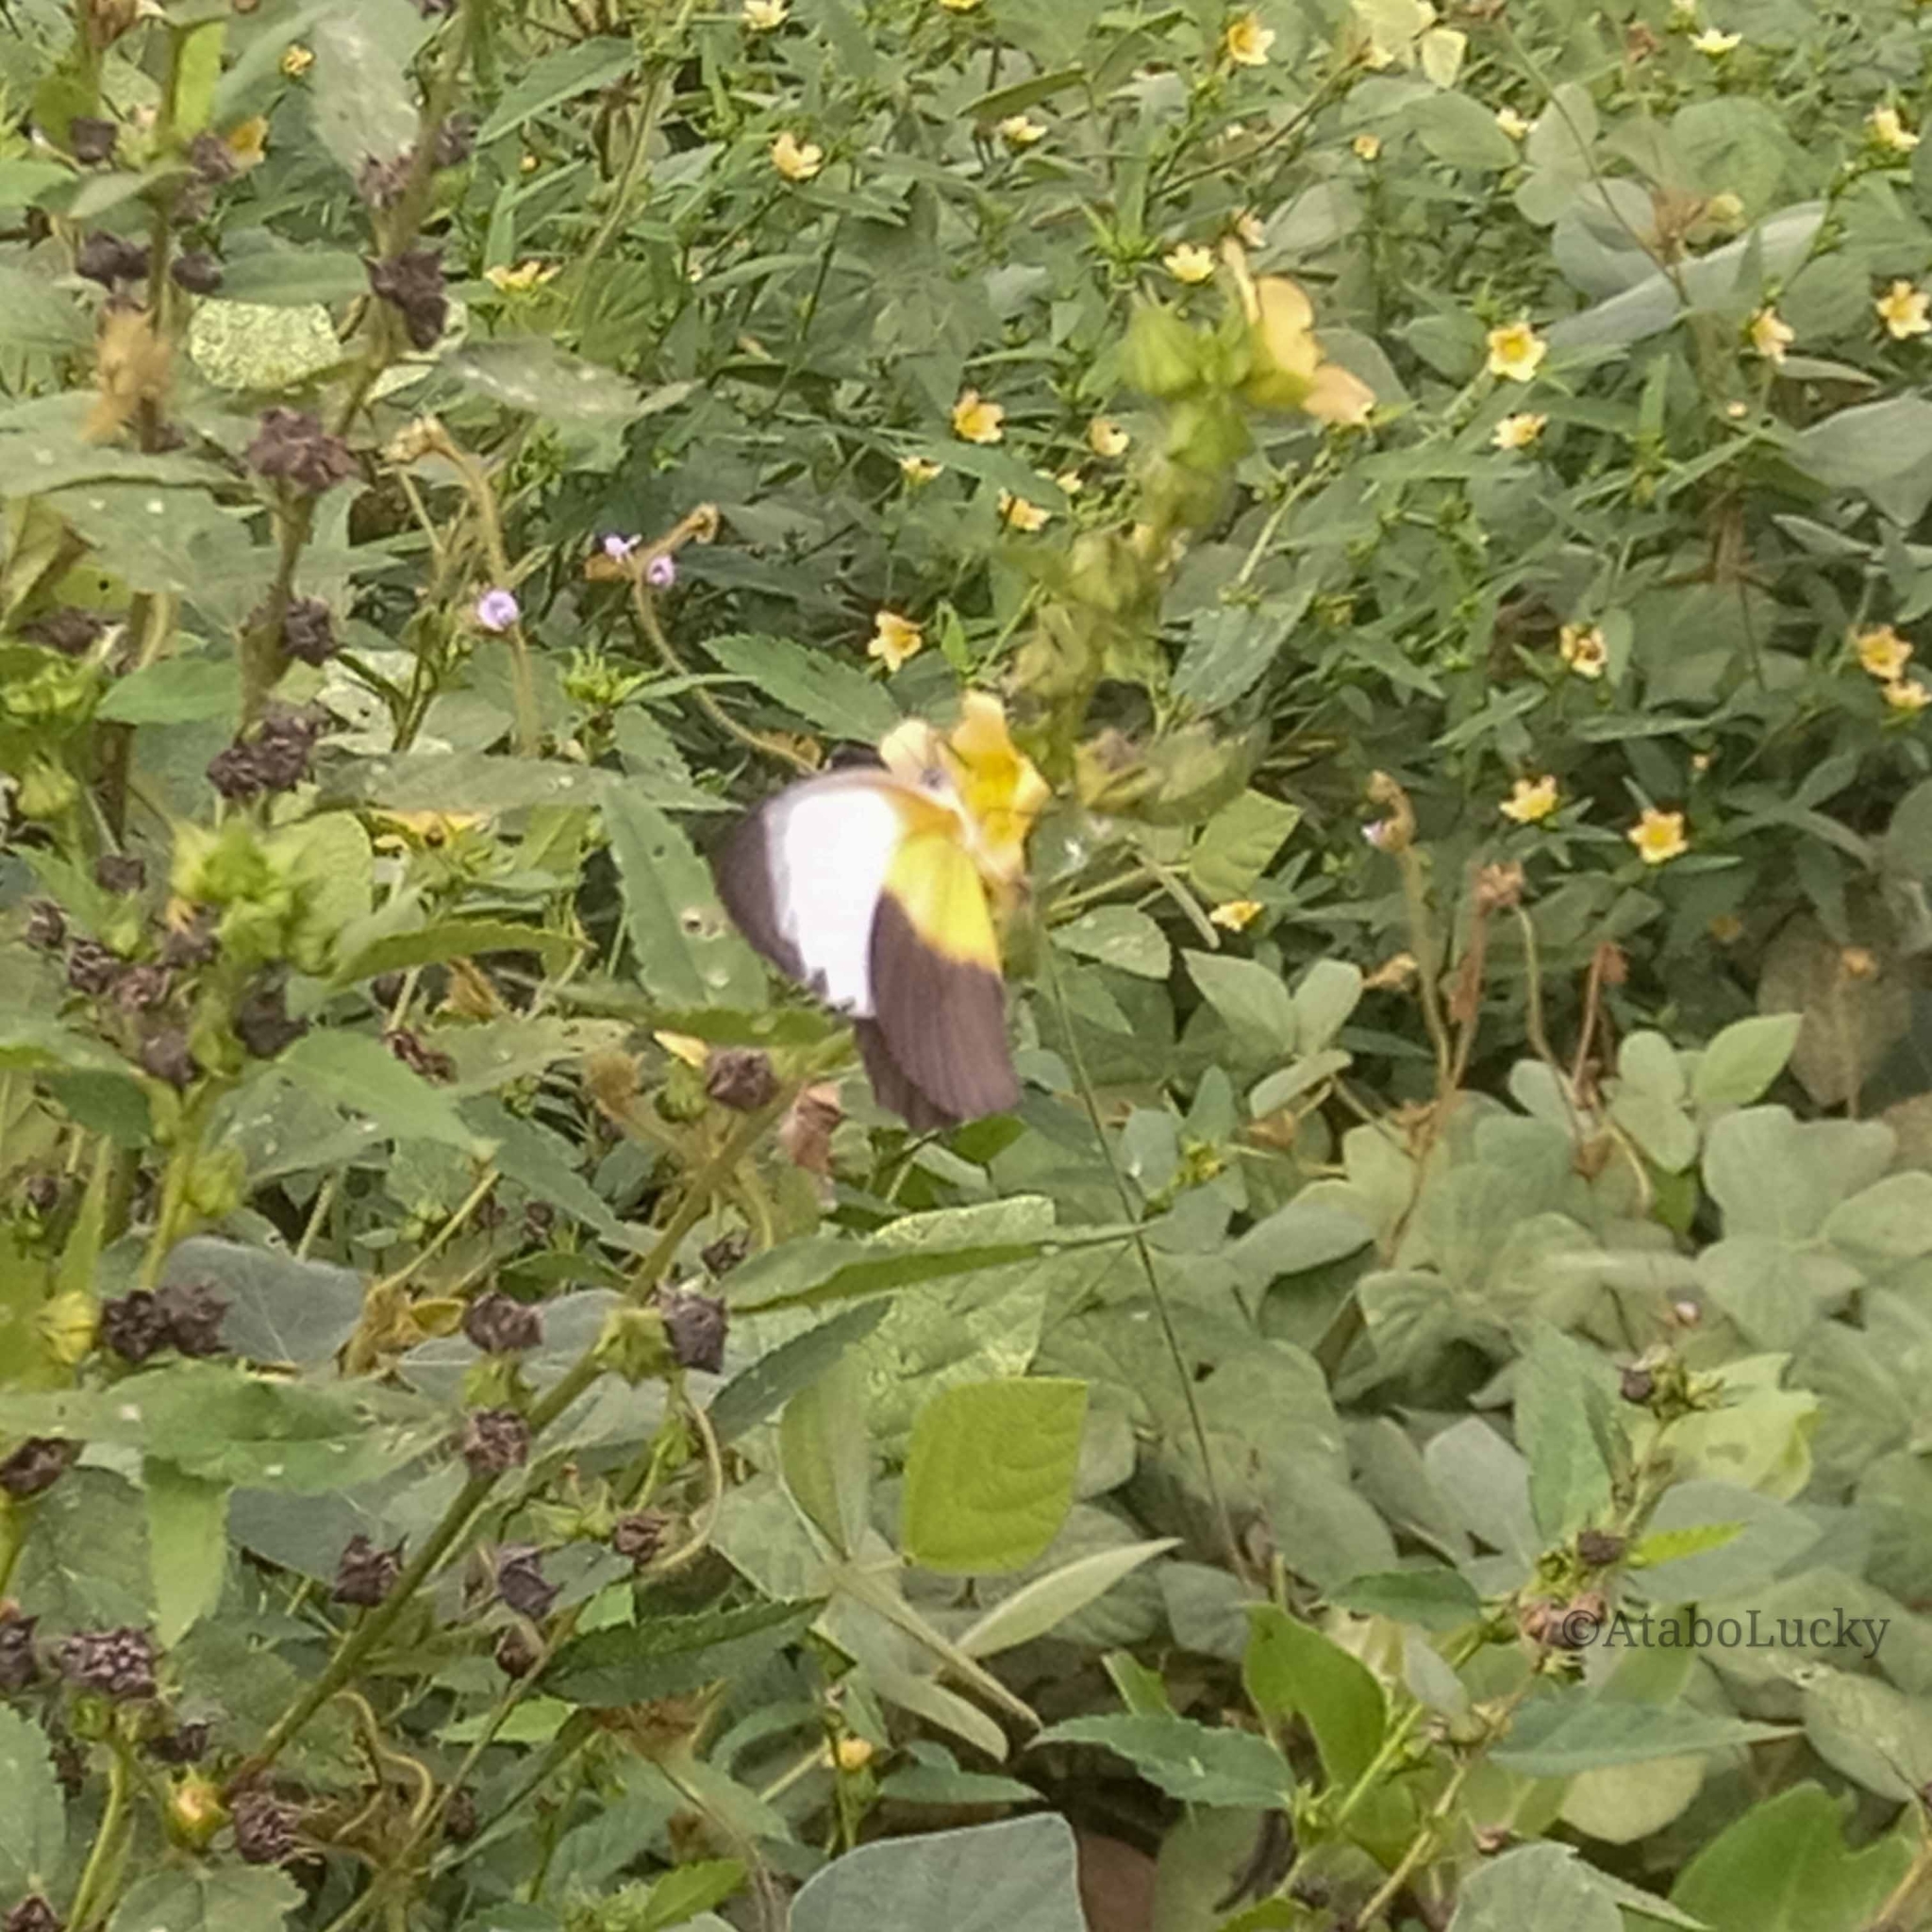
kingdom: Animalia
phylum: Arthropoda
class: Insecta
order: Lepidoptera
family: Pieridae
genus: Mylothris
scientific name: Mylothris chloris
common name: Western dotted border
